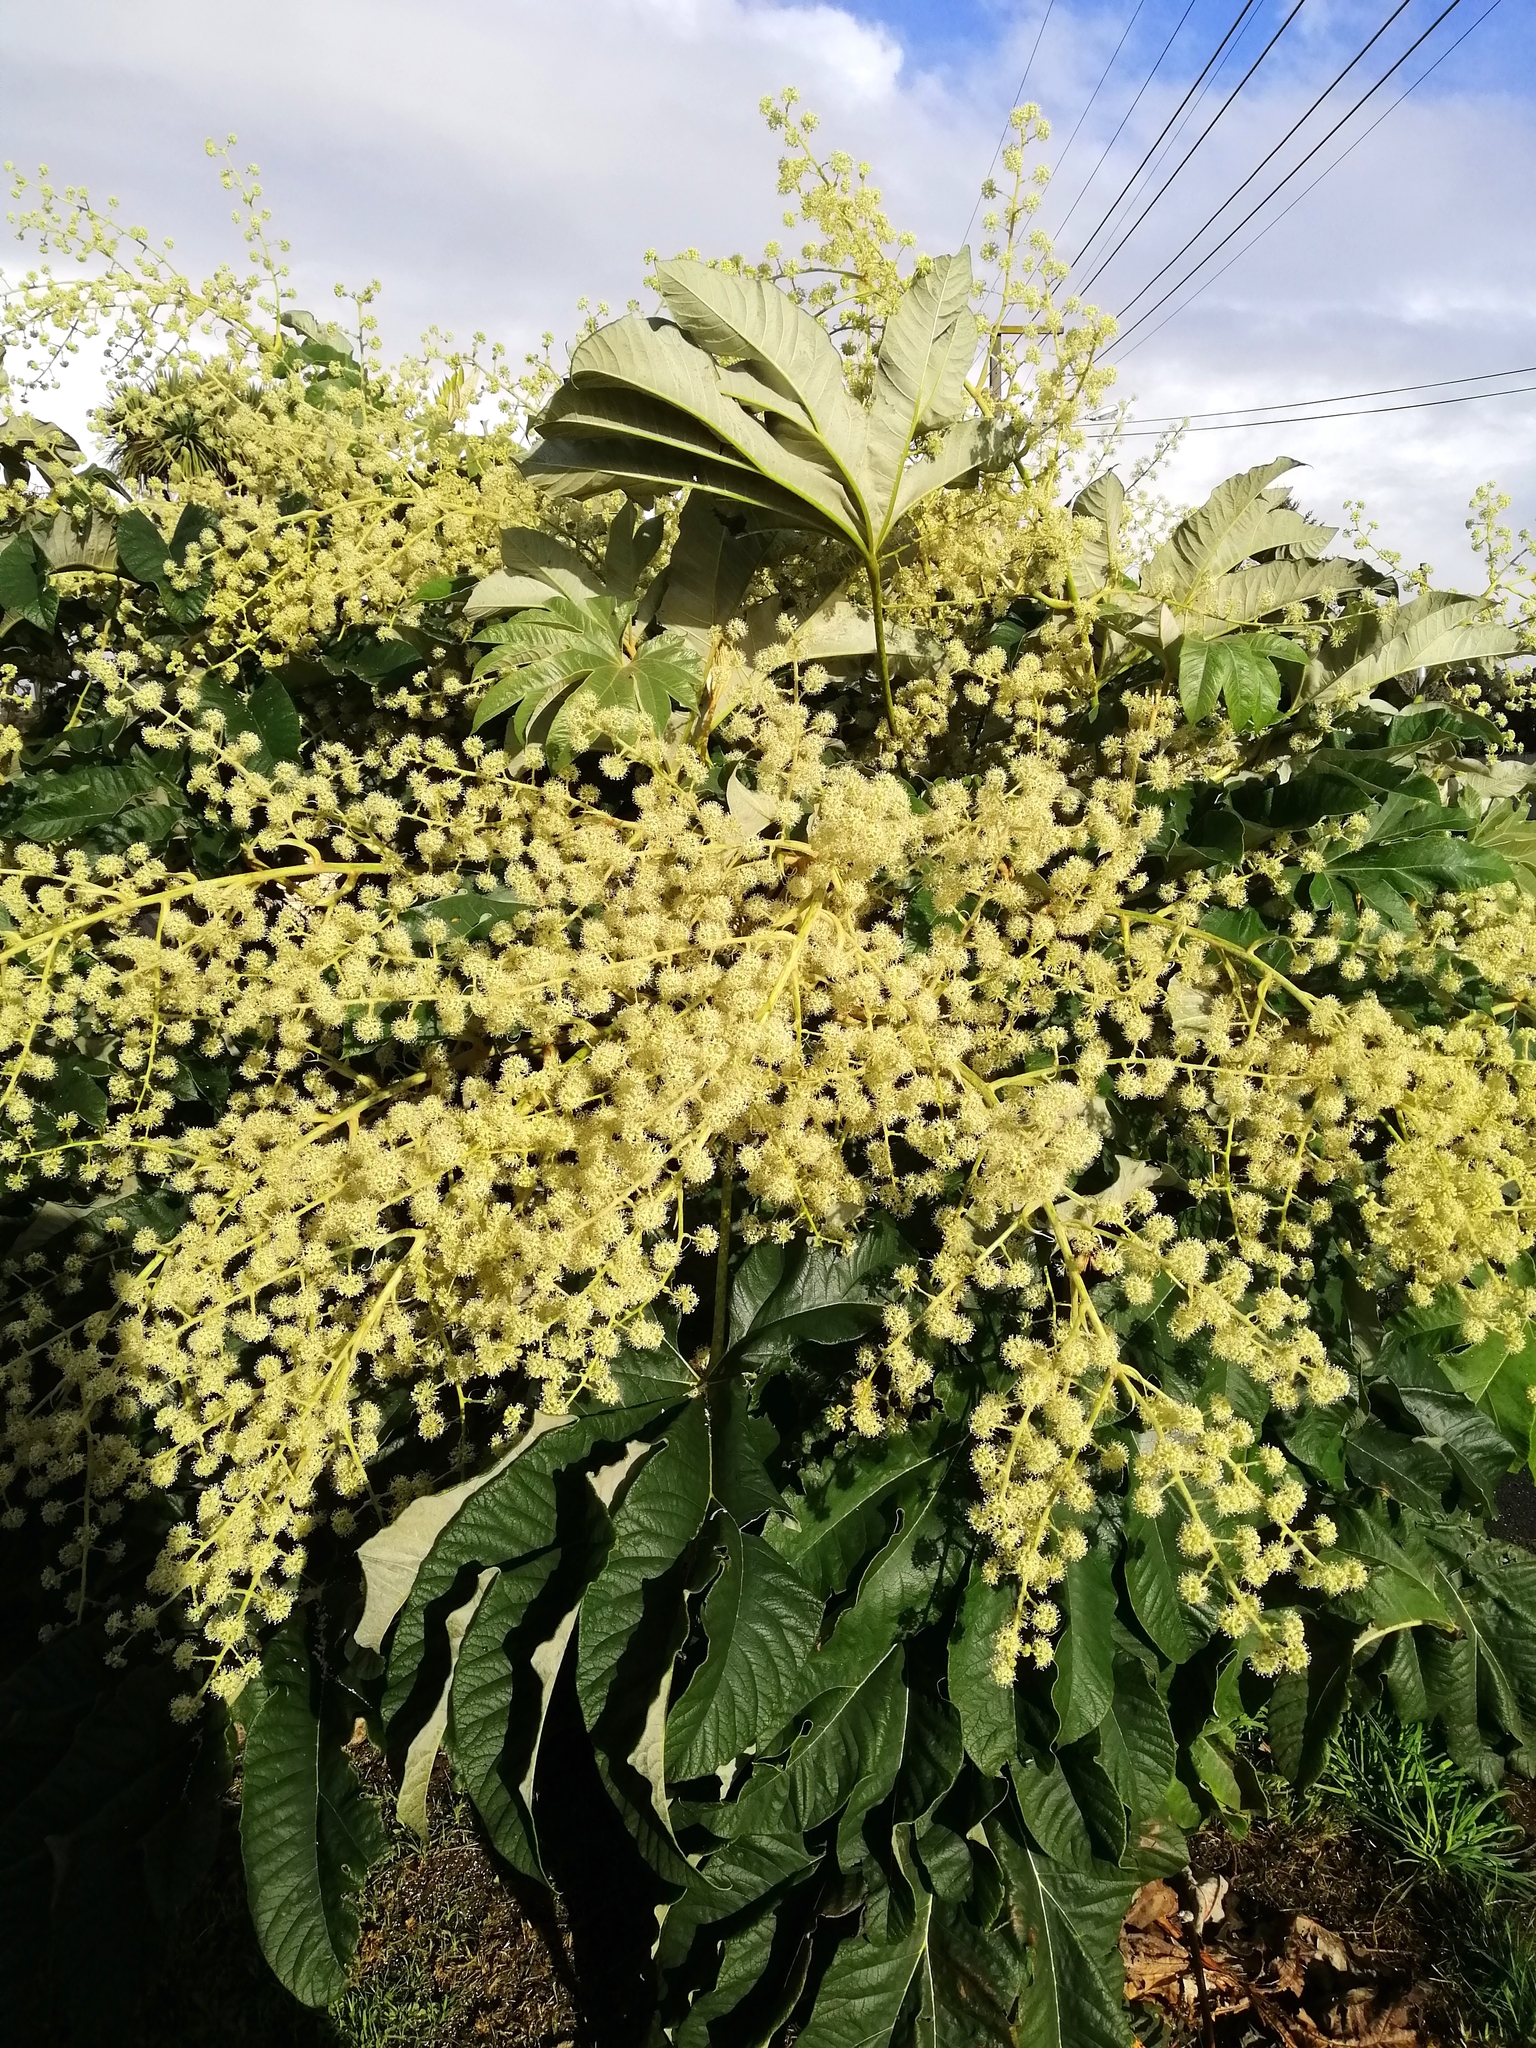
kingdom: Plantae
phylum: Tracheophyta
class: Magnoliopsida
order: Apiales
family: Araliaceae
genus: Tetrapanax
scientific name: Tetrapanax papyrifer
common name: Rice-paper plant
